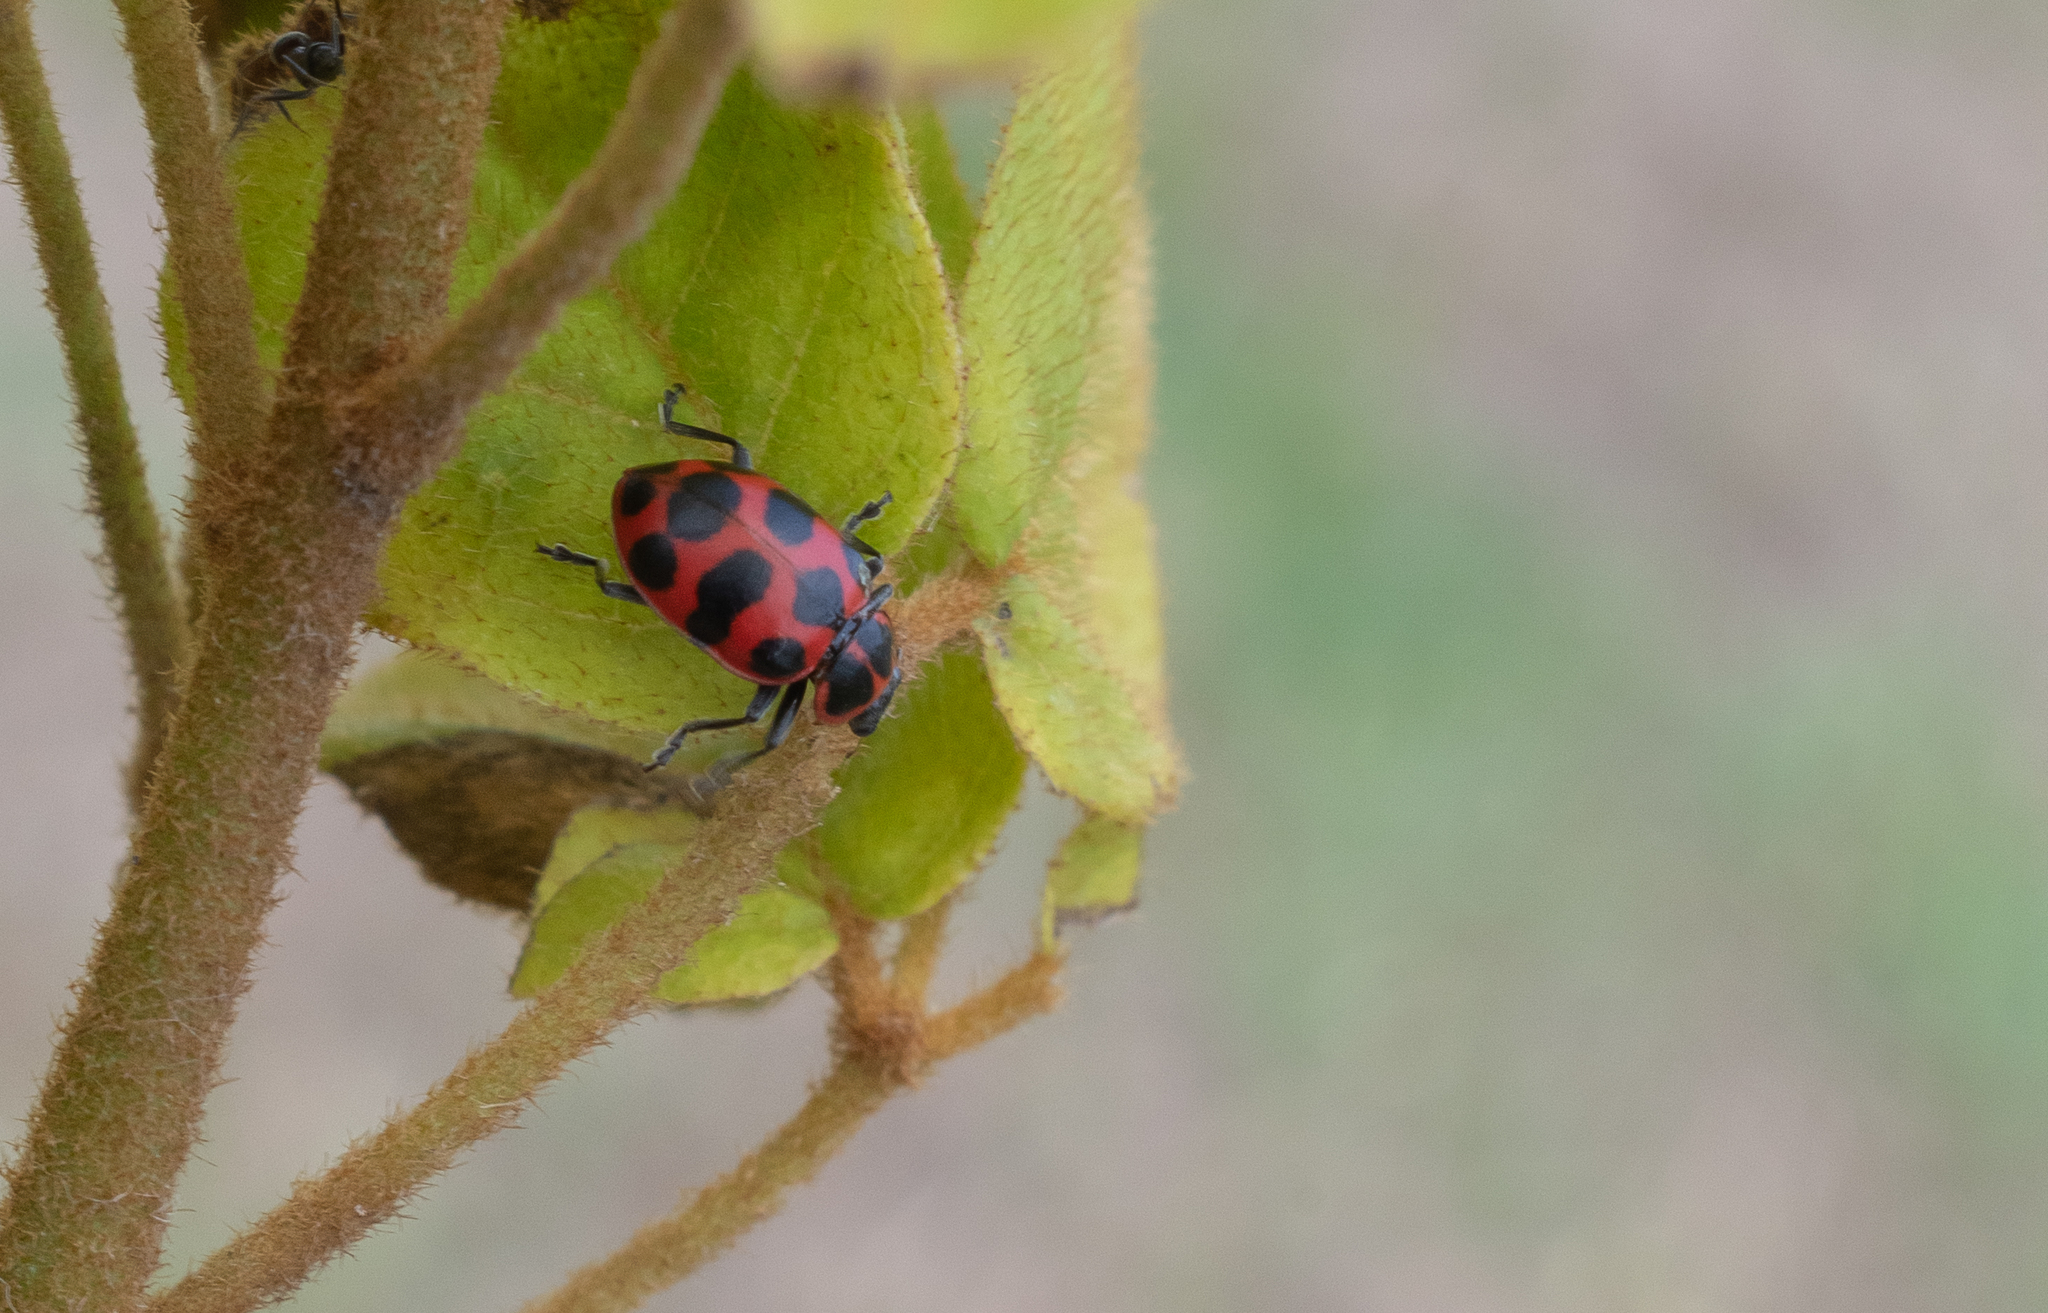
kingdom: Animalia
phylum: Arthropoda
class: Insecta
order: Coleoptera
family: Coccinellidae
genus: Coleomegilla
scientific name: Coleomegilla maculata
